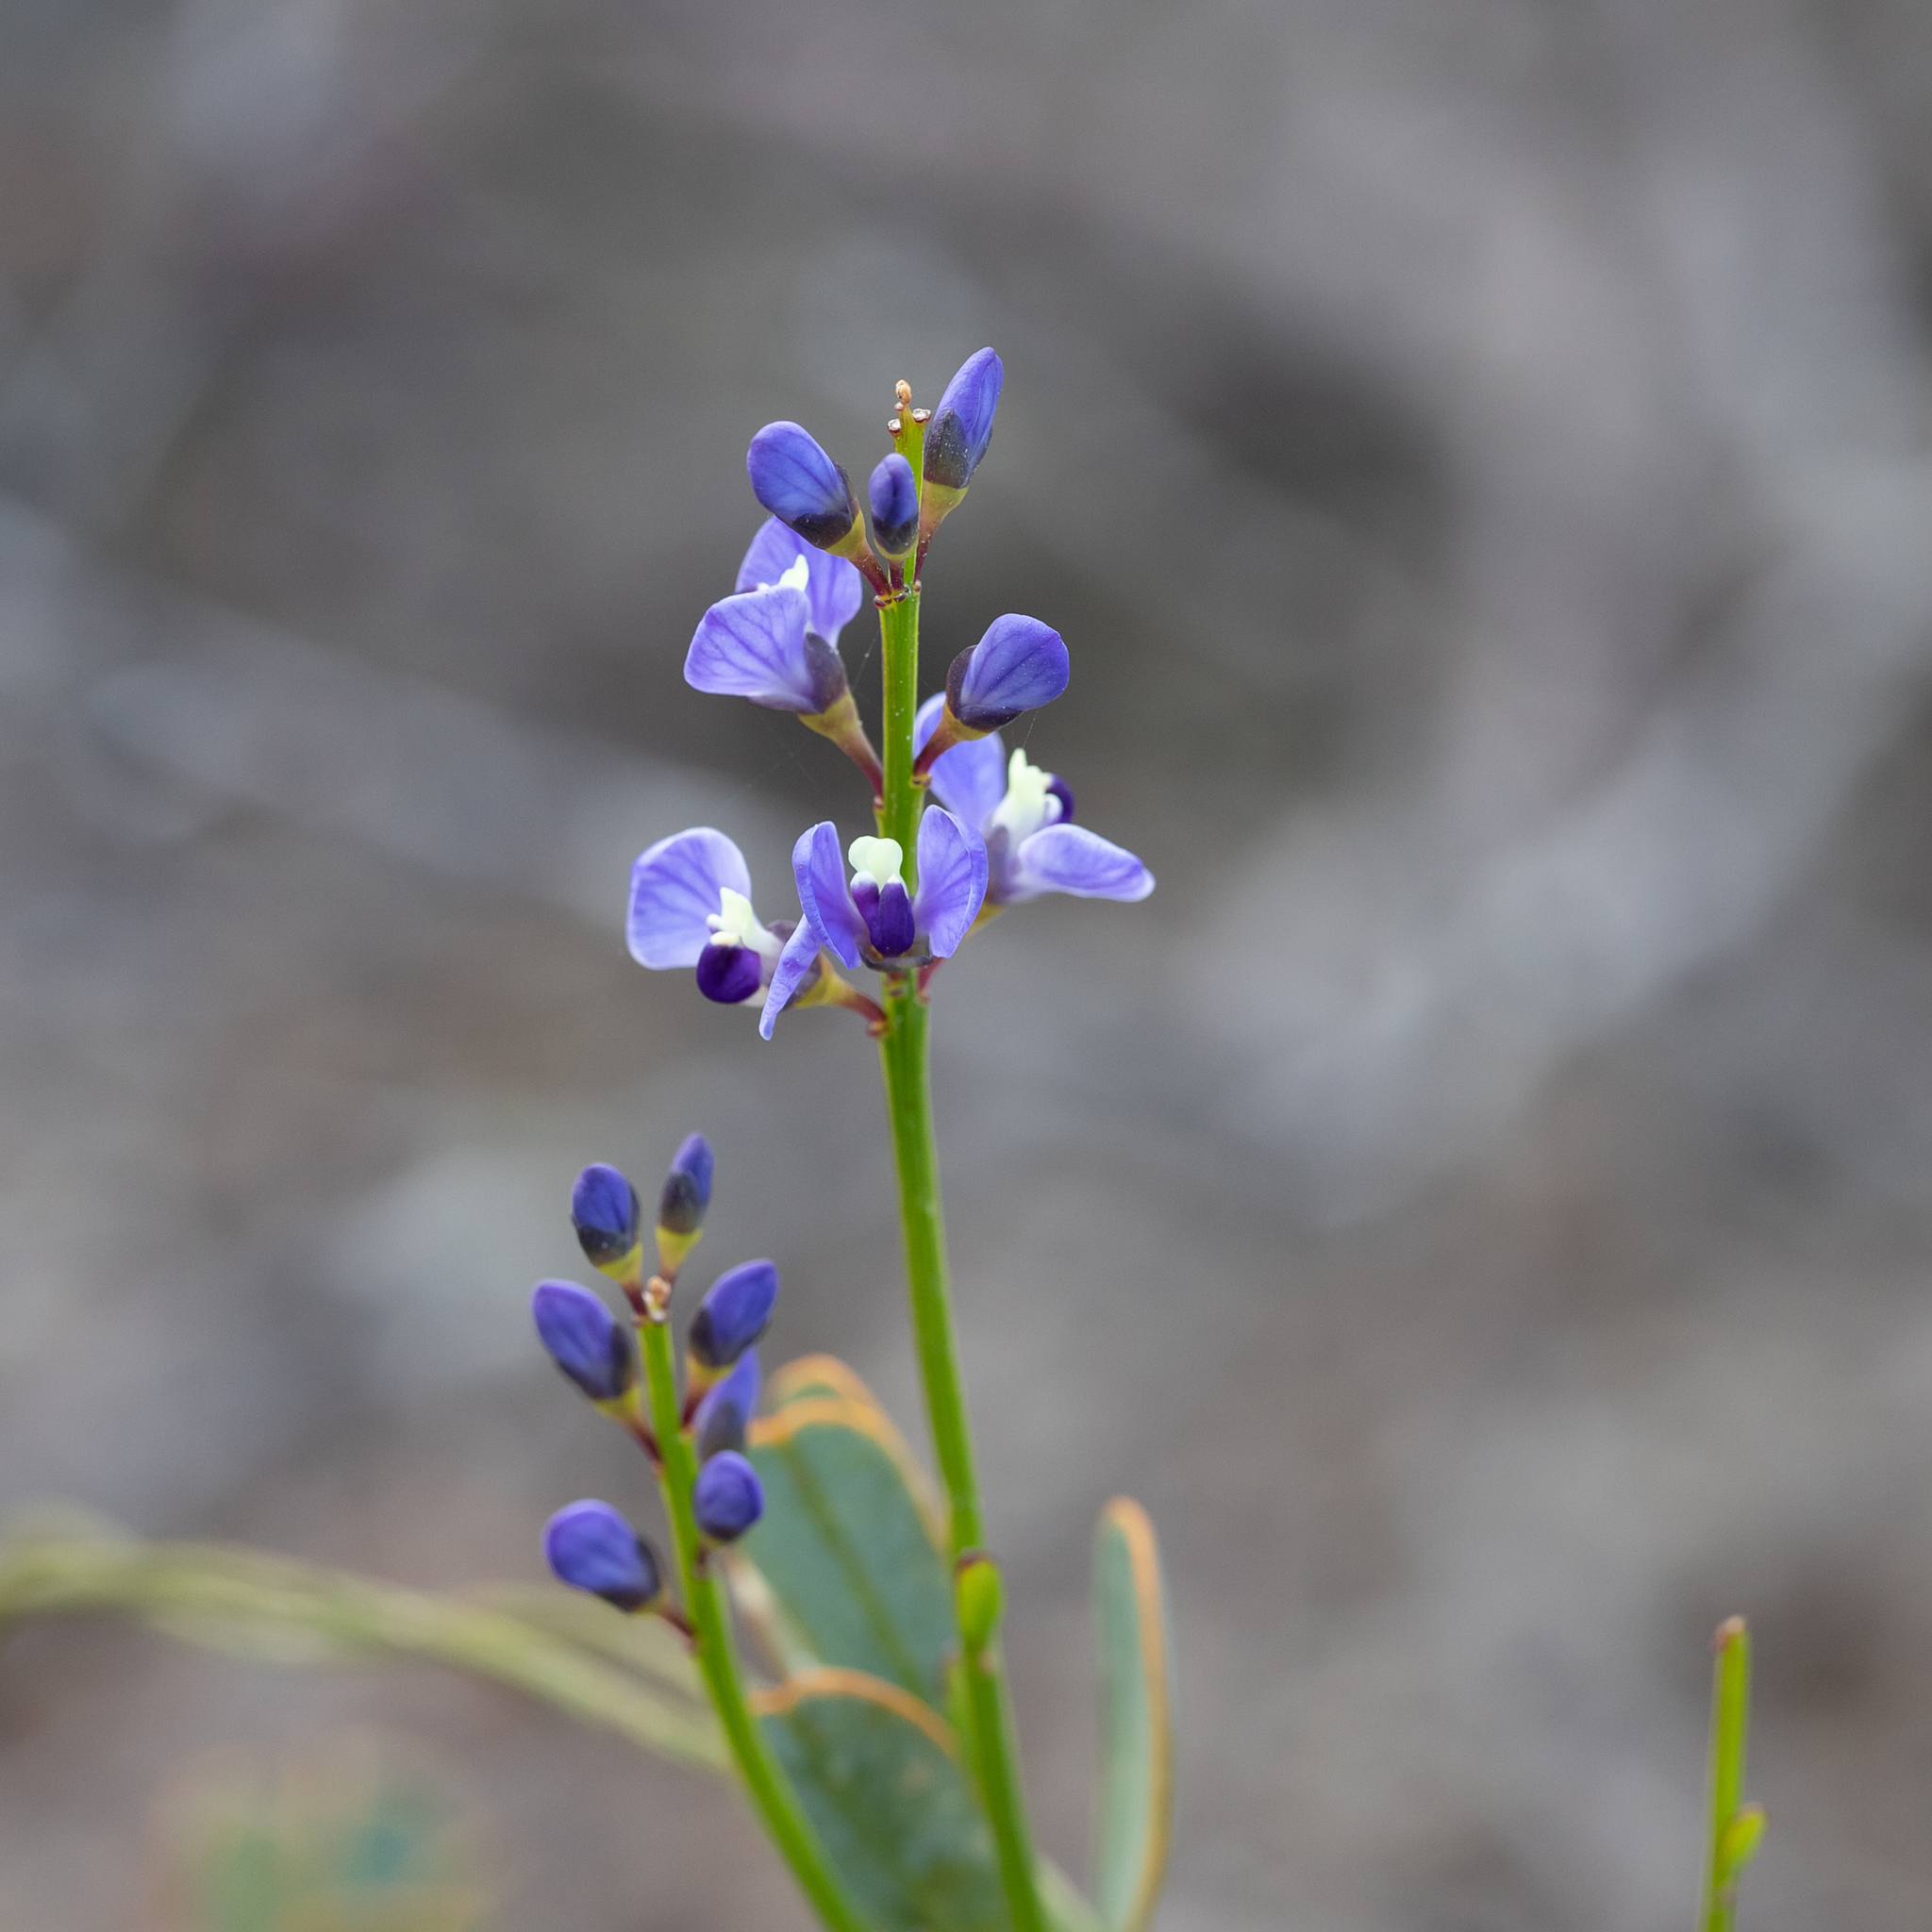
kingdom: Plantae
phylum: Tracheophyta
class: Magnoliopsida
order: Fabales
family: Polygalaceae
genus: Comesperma
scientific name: Comesperma volubile
